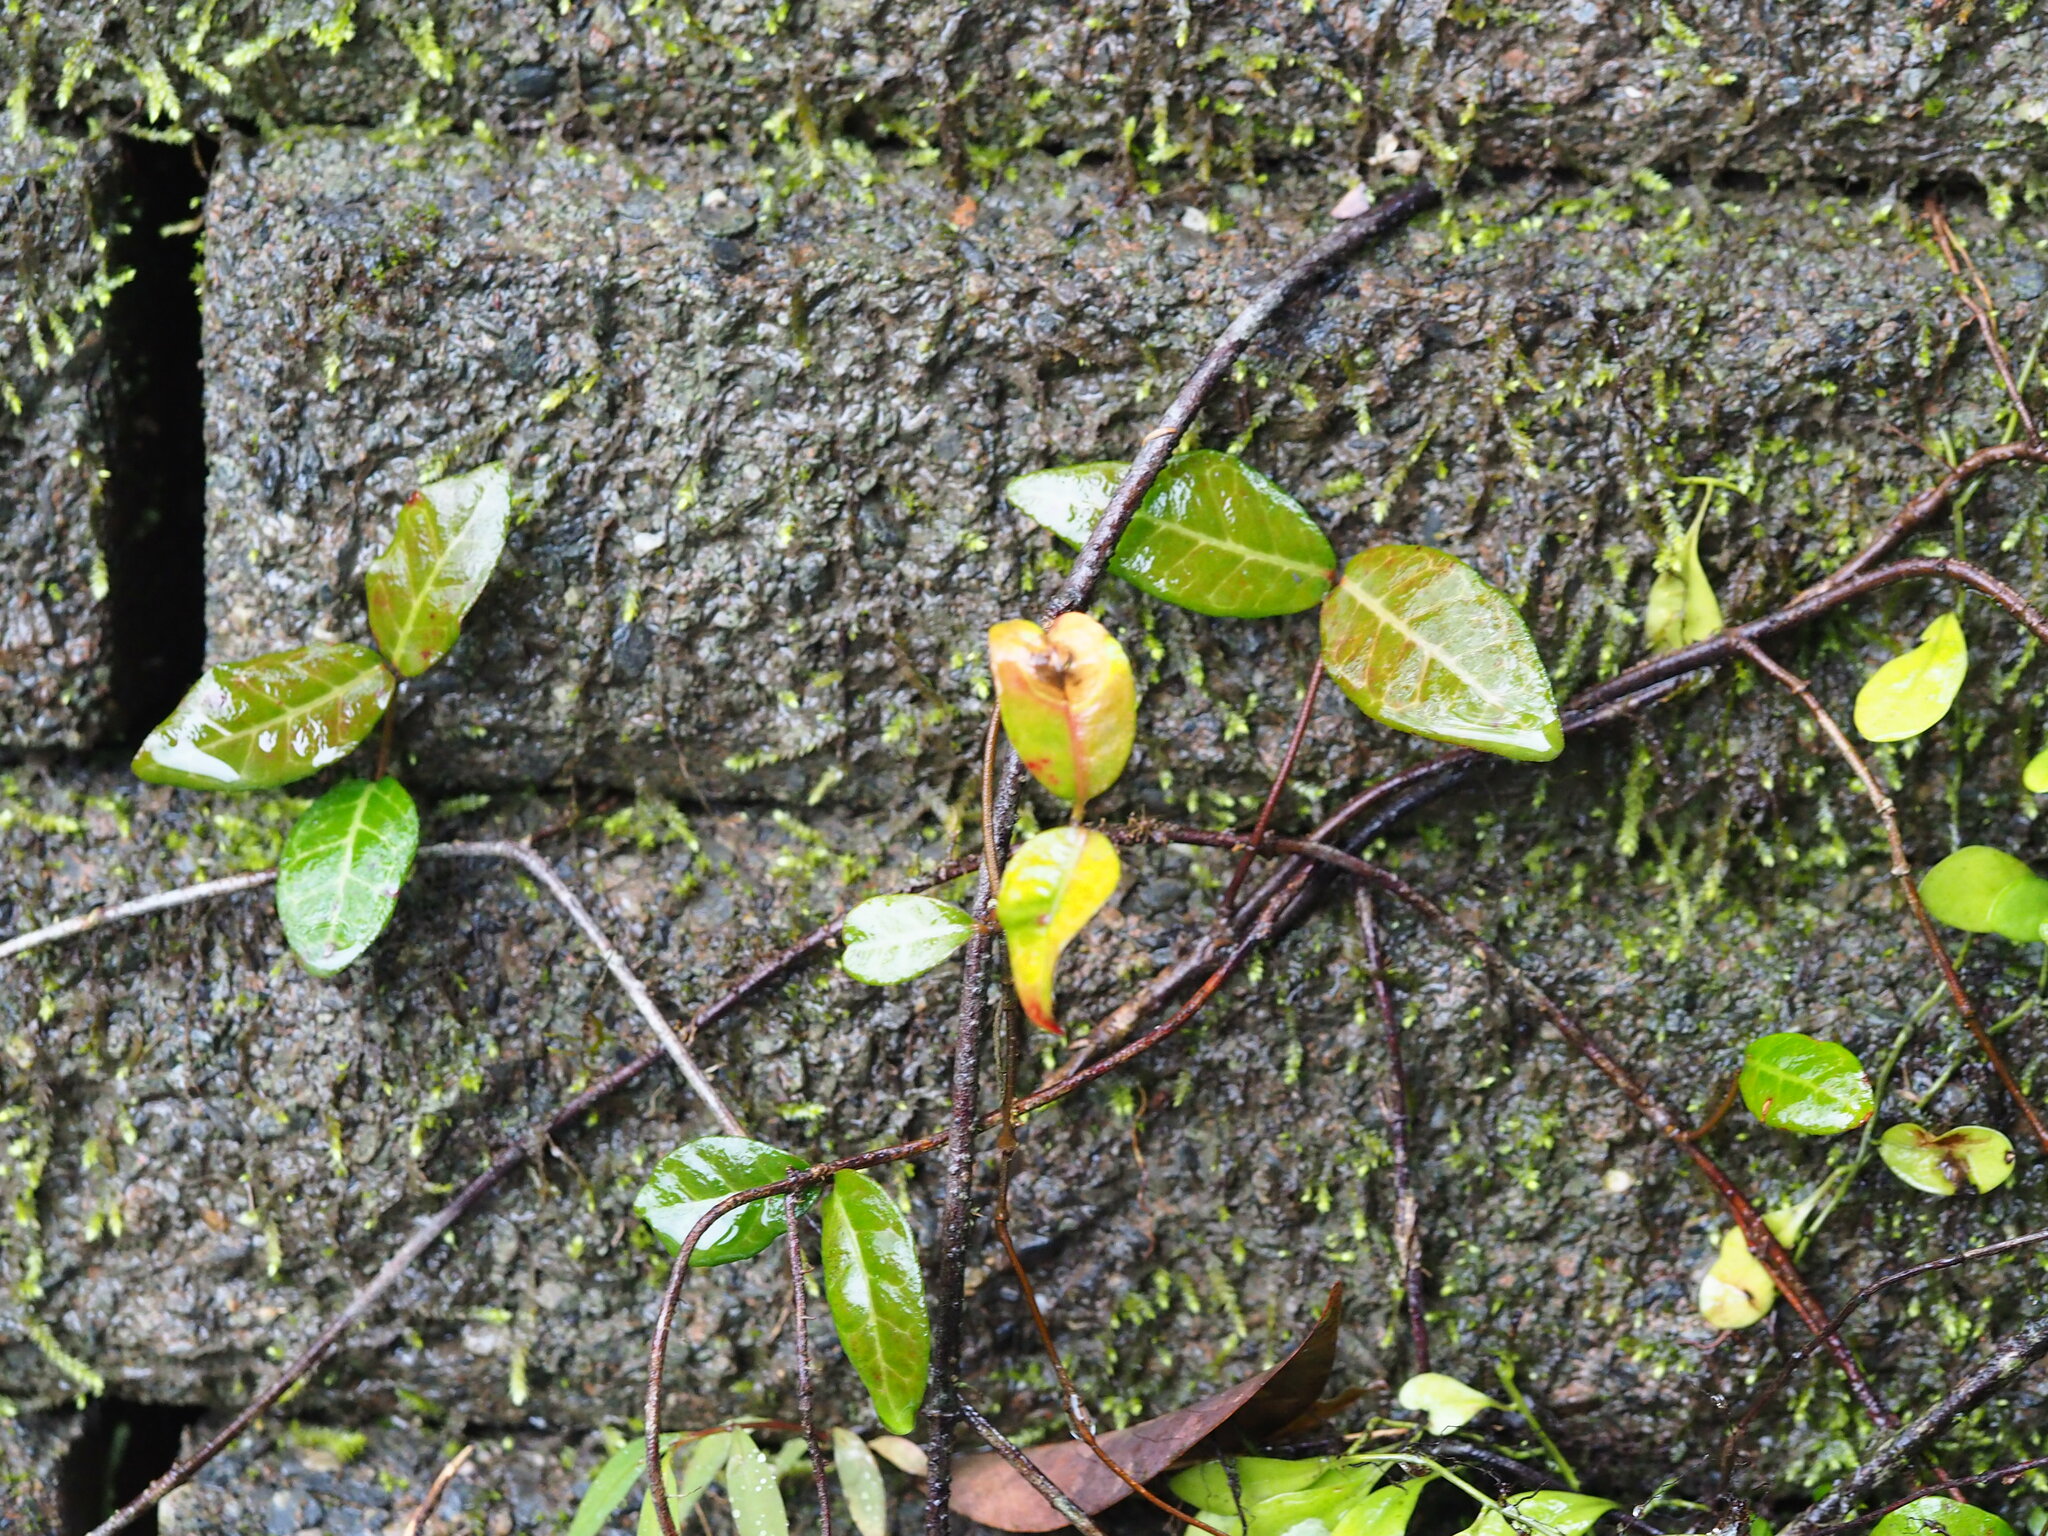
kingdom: Plantae
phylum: Tracheophyta
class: Magnoliopsida
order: Gentianales
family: Apocynaceae
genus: Trachelospermum
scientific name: Trachelospermum asiaticum
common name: Asiatic jasmine
